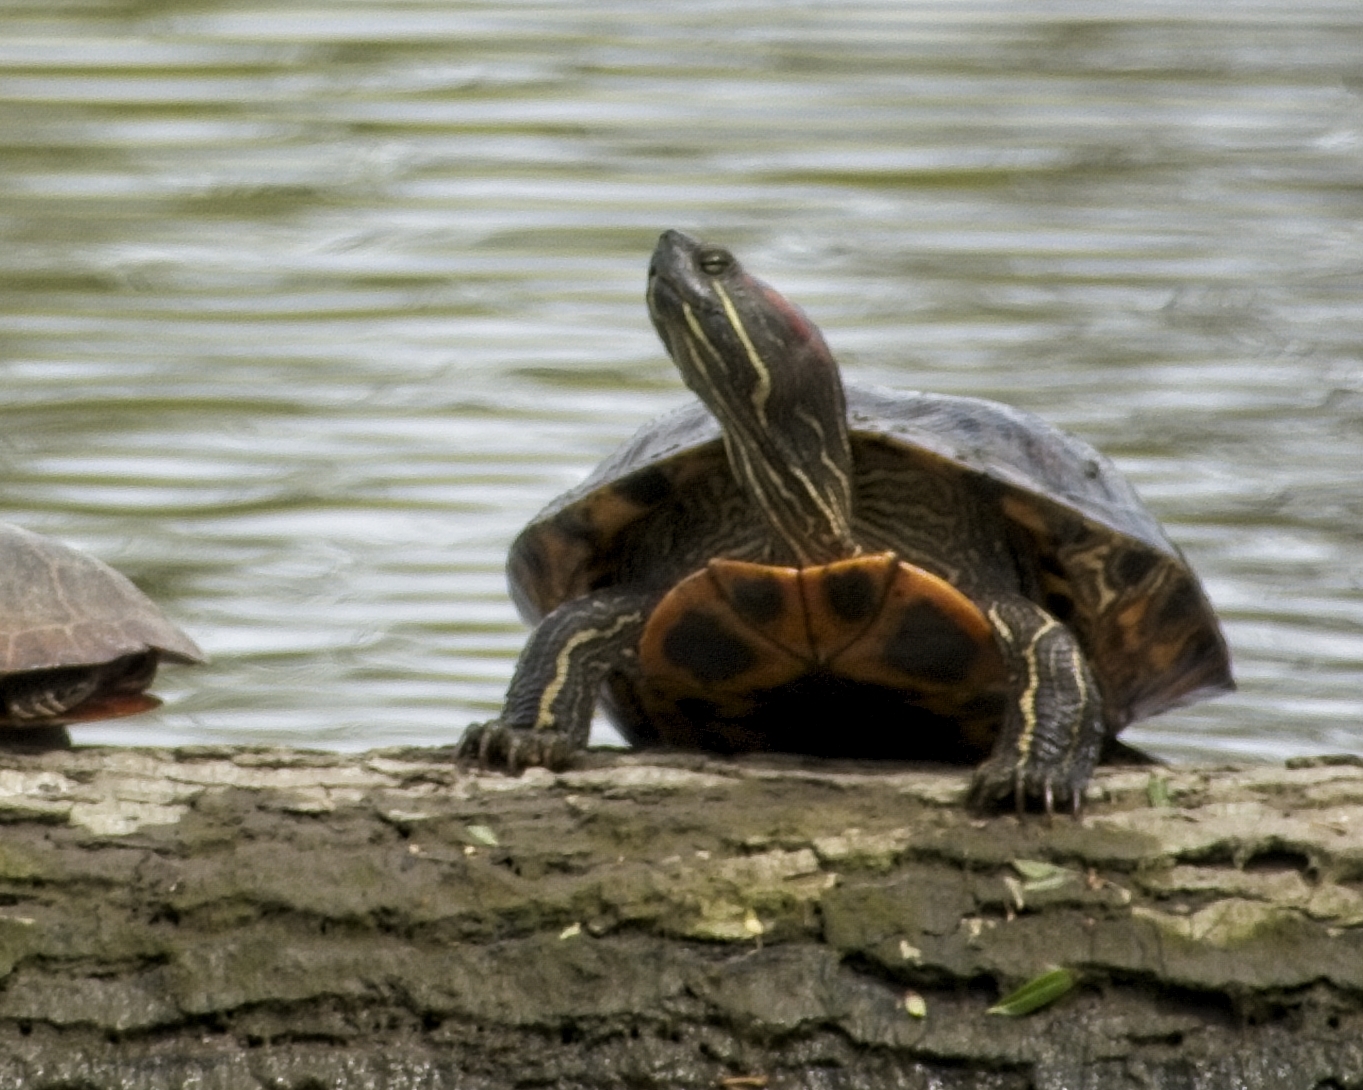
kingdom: Animalia
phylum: Chordata
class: Testudines
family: Emydidae
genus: Trachemys
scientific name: Trachemys scripta
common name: Slider
